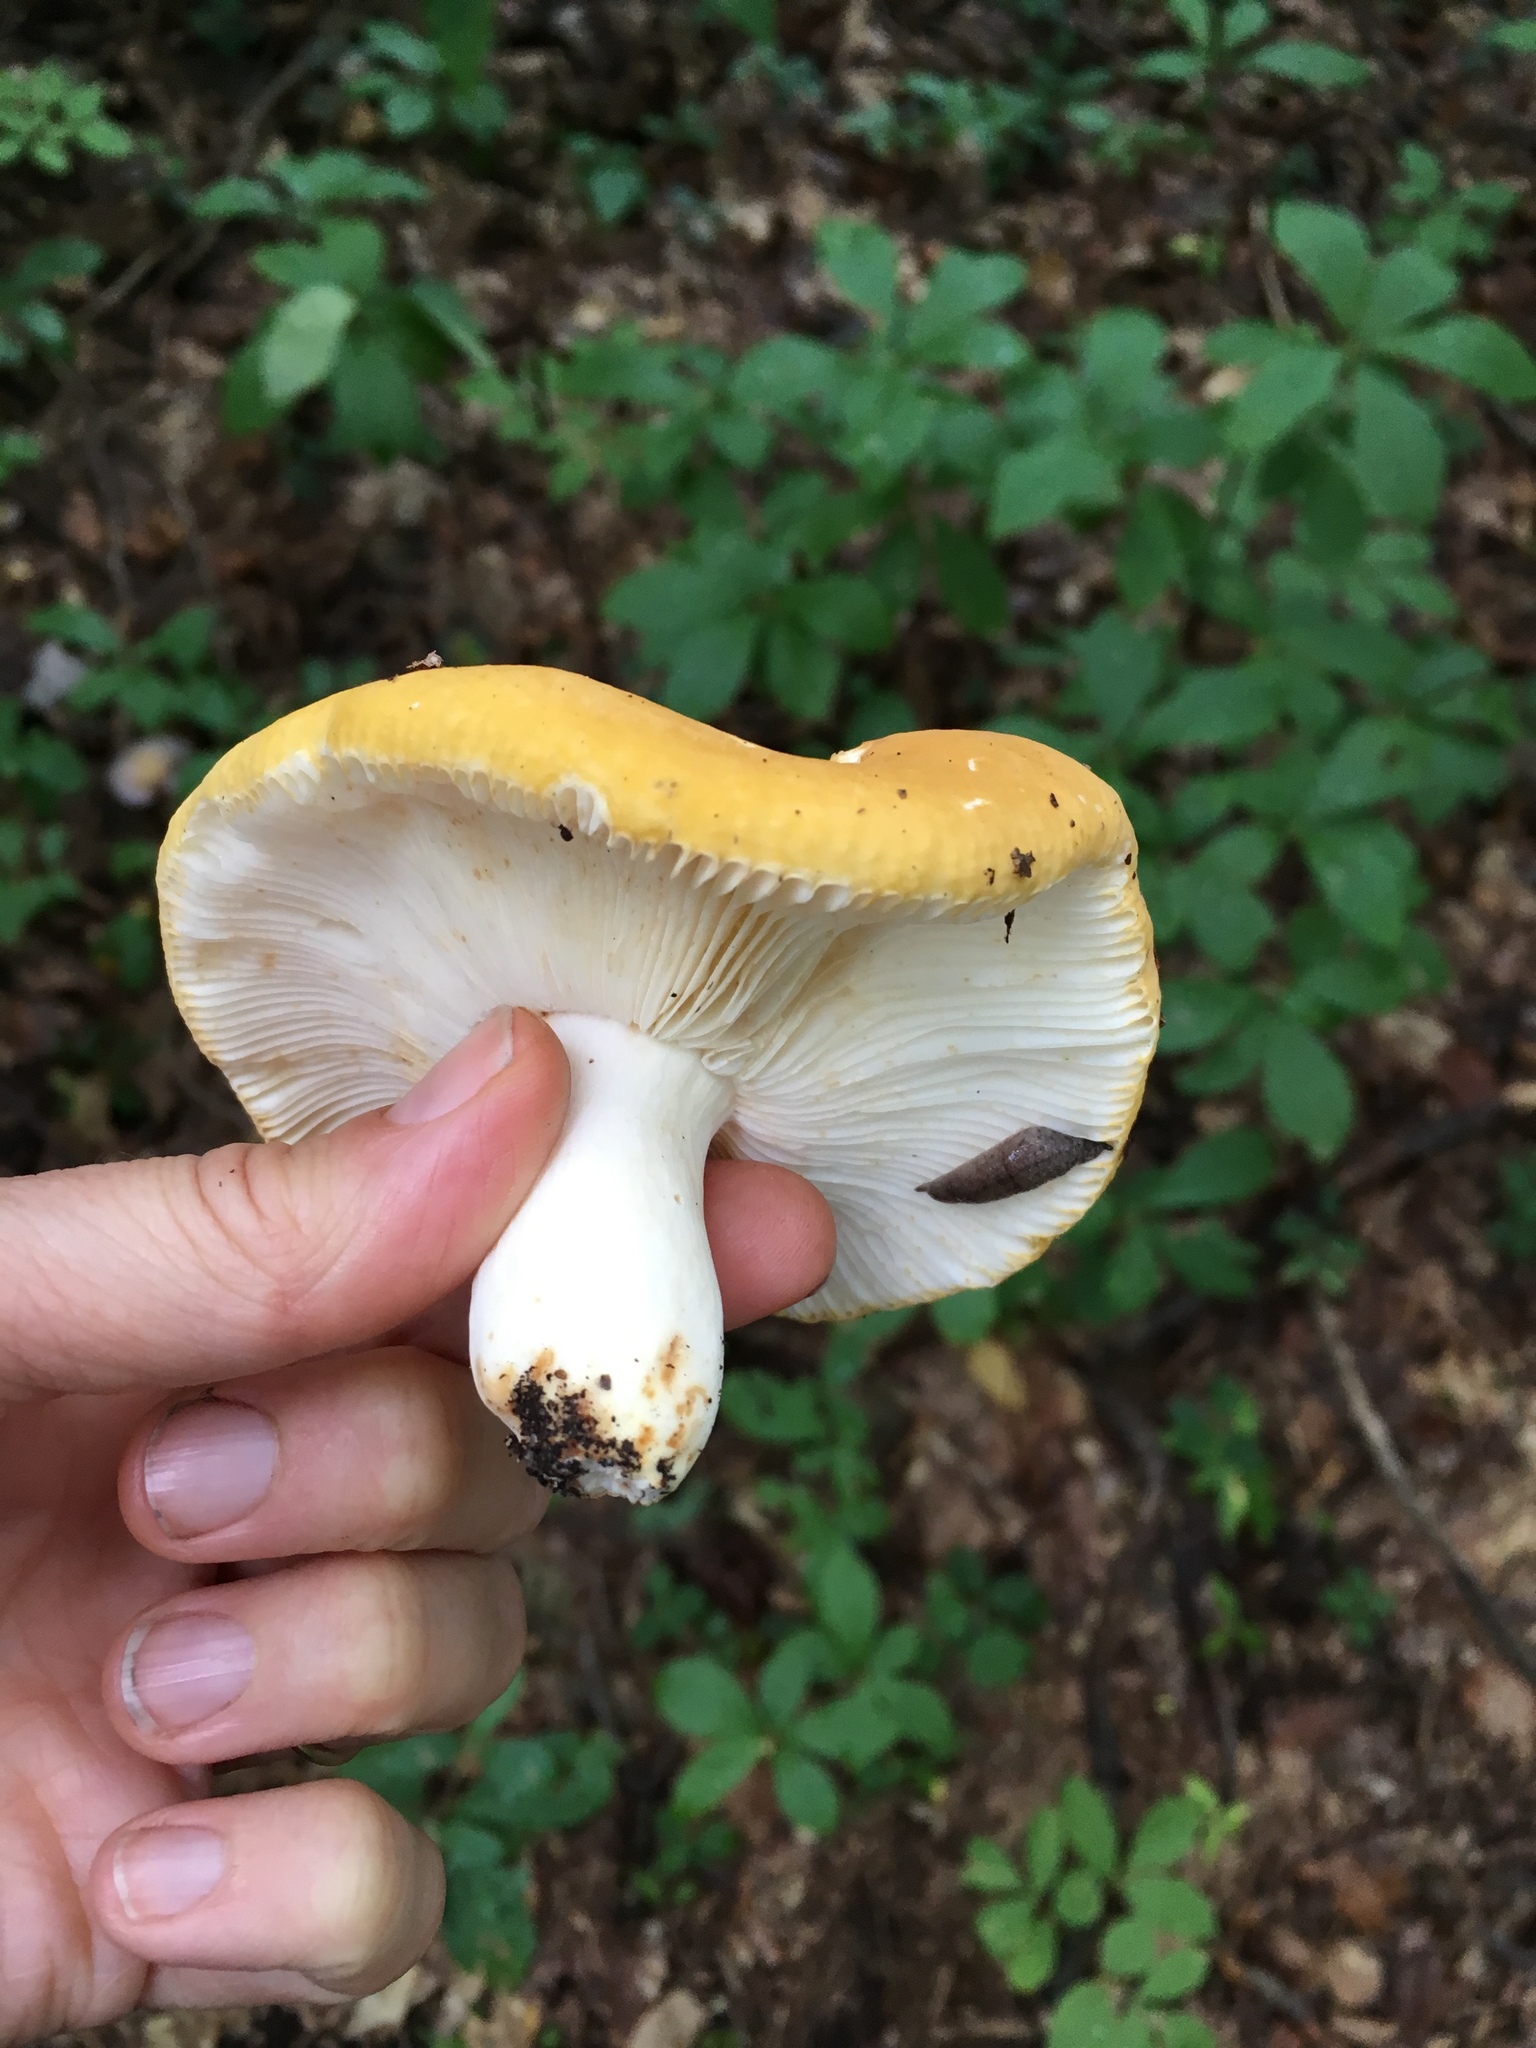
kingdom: Fungi
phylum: Basidiomycota
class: Agaricomycetes
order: Russulales
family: Russulaceae
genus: Russula
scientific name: Russula ochroleuca
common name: Common yellow russula
